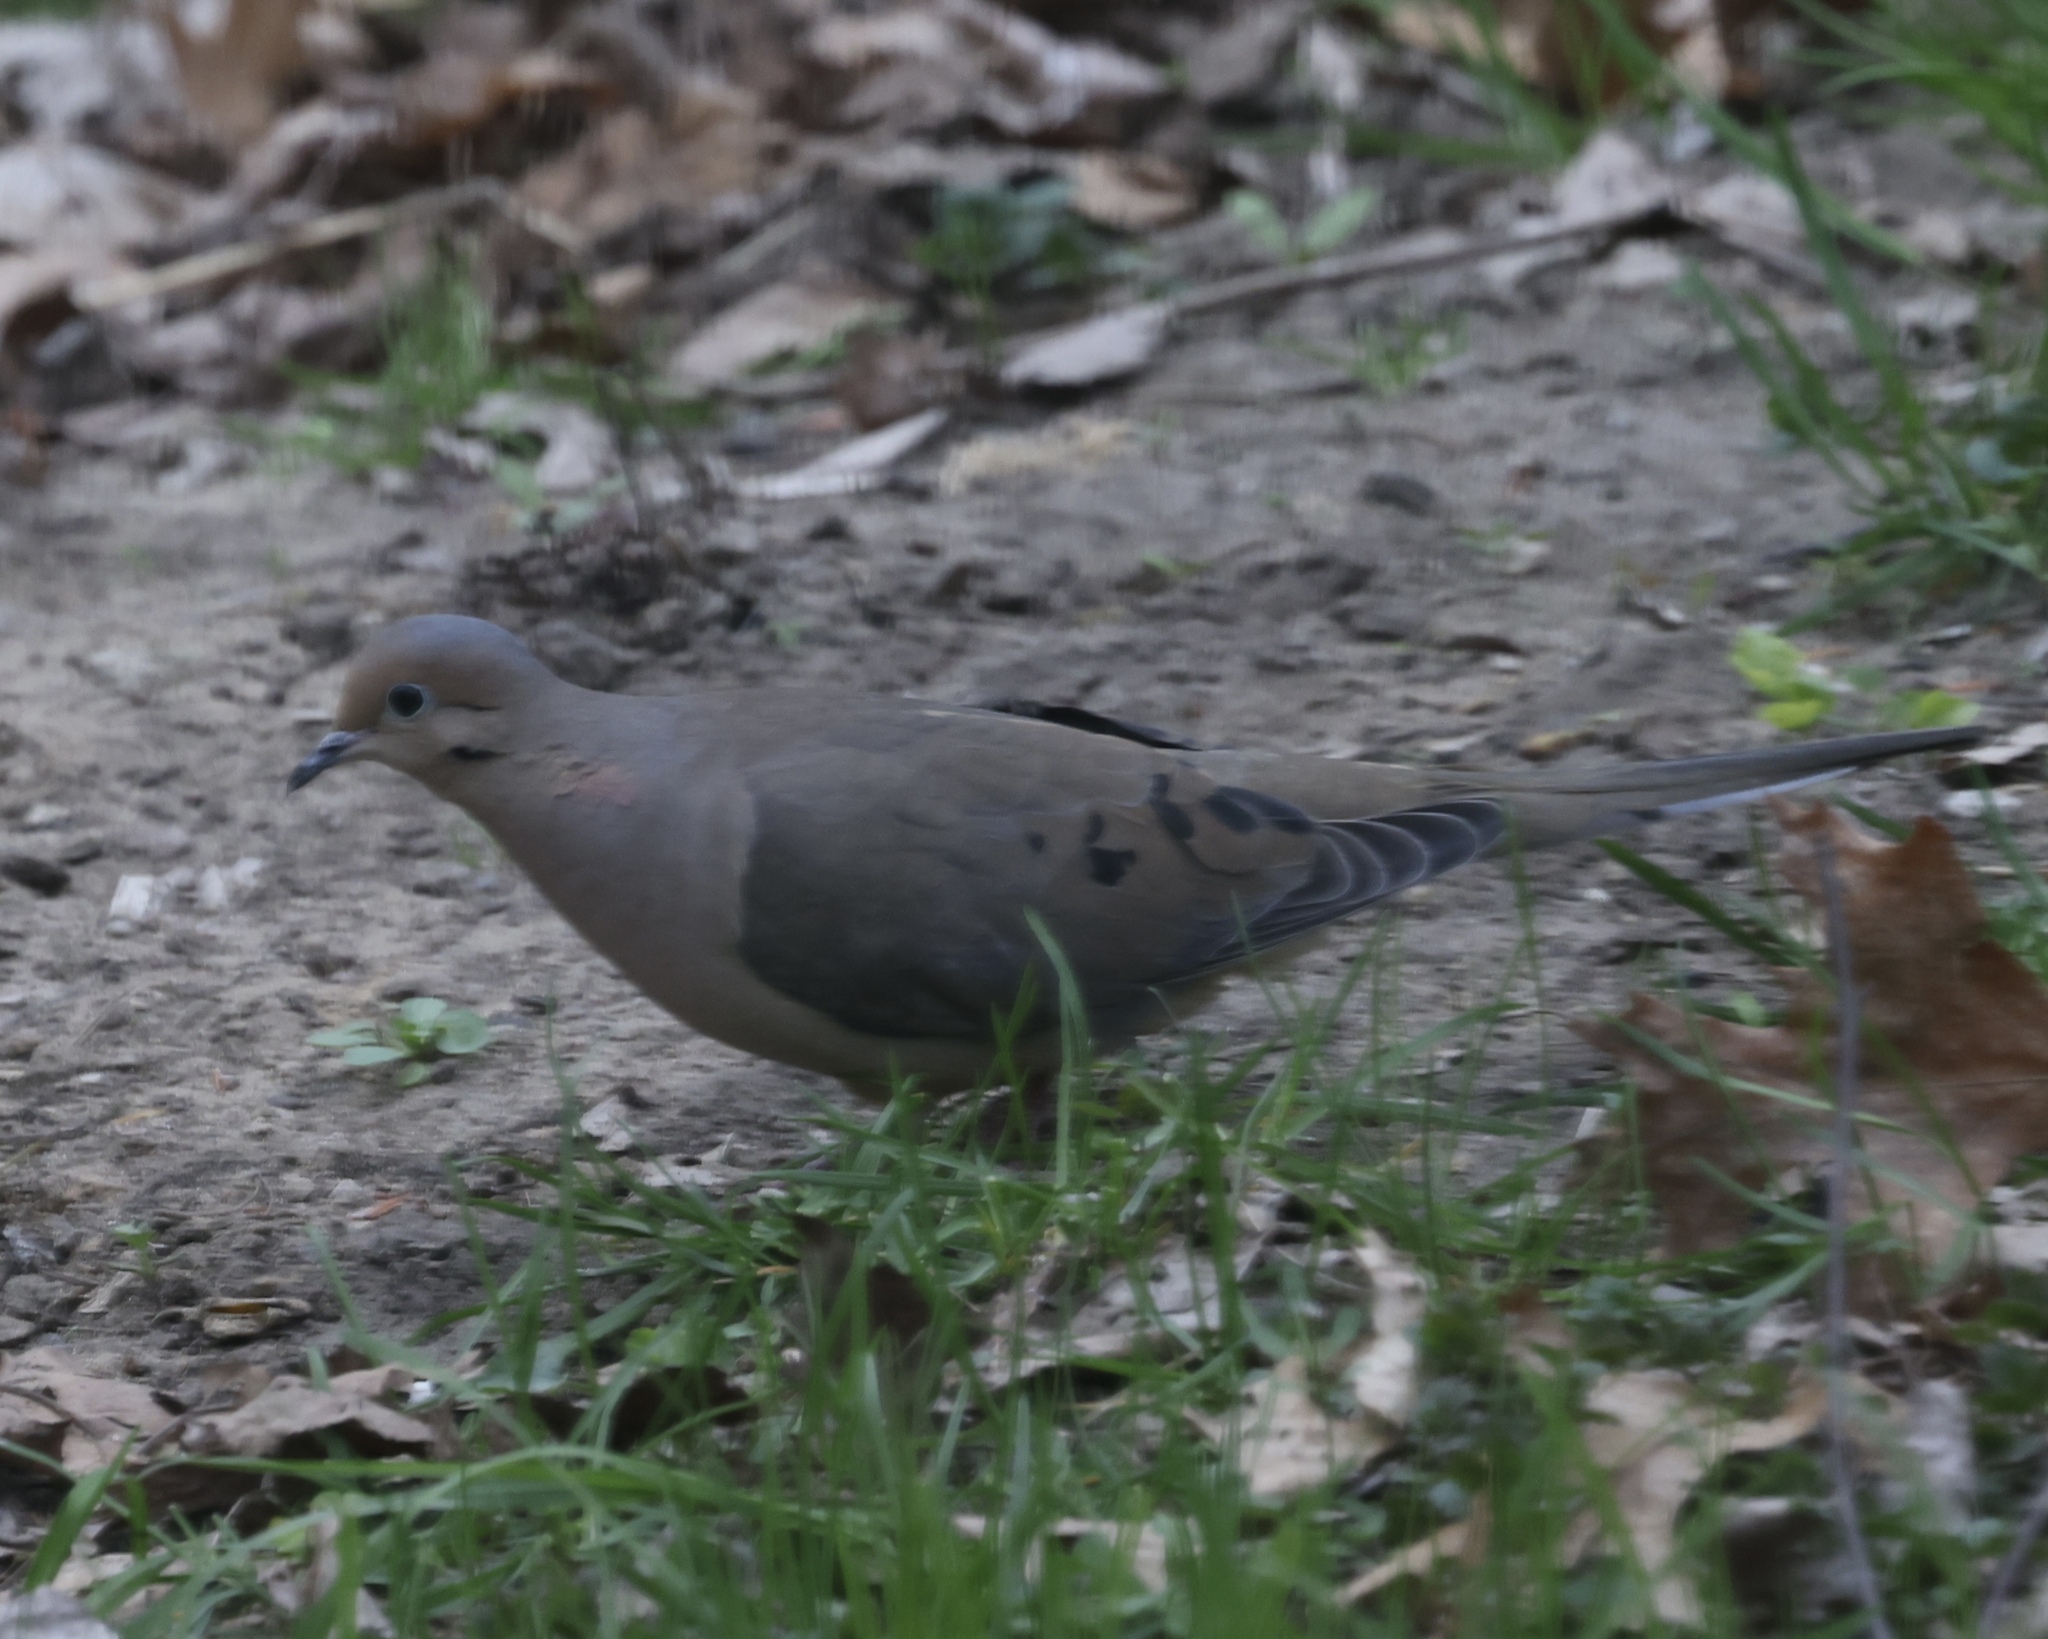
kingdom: Animalia
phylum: Chordata
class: Aves
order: Columbiformes
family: Columbidae
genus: Zenaida
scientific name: Zenaida macroura
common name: Mourning dove
